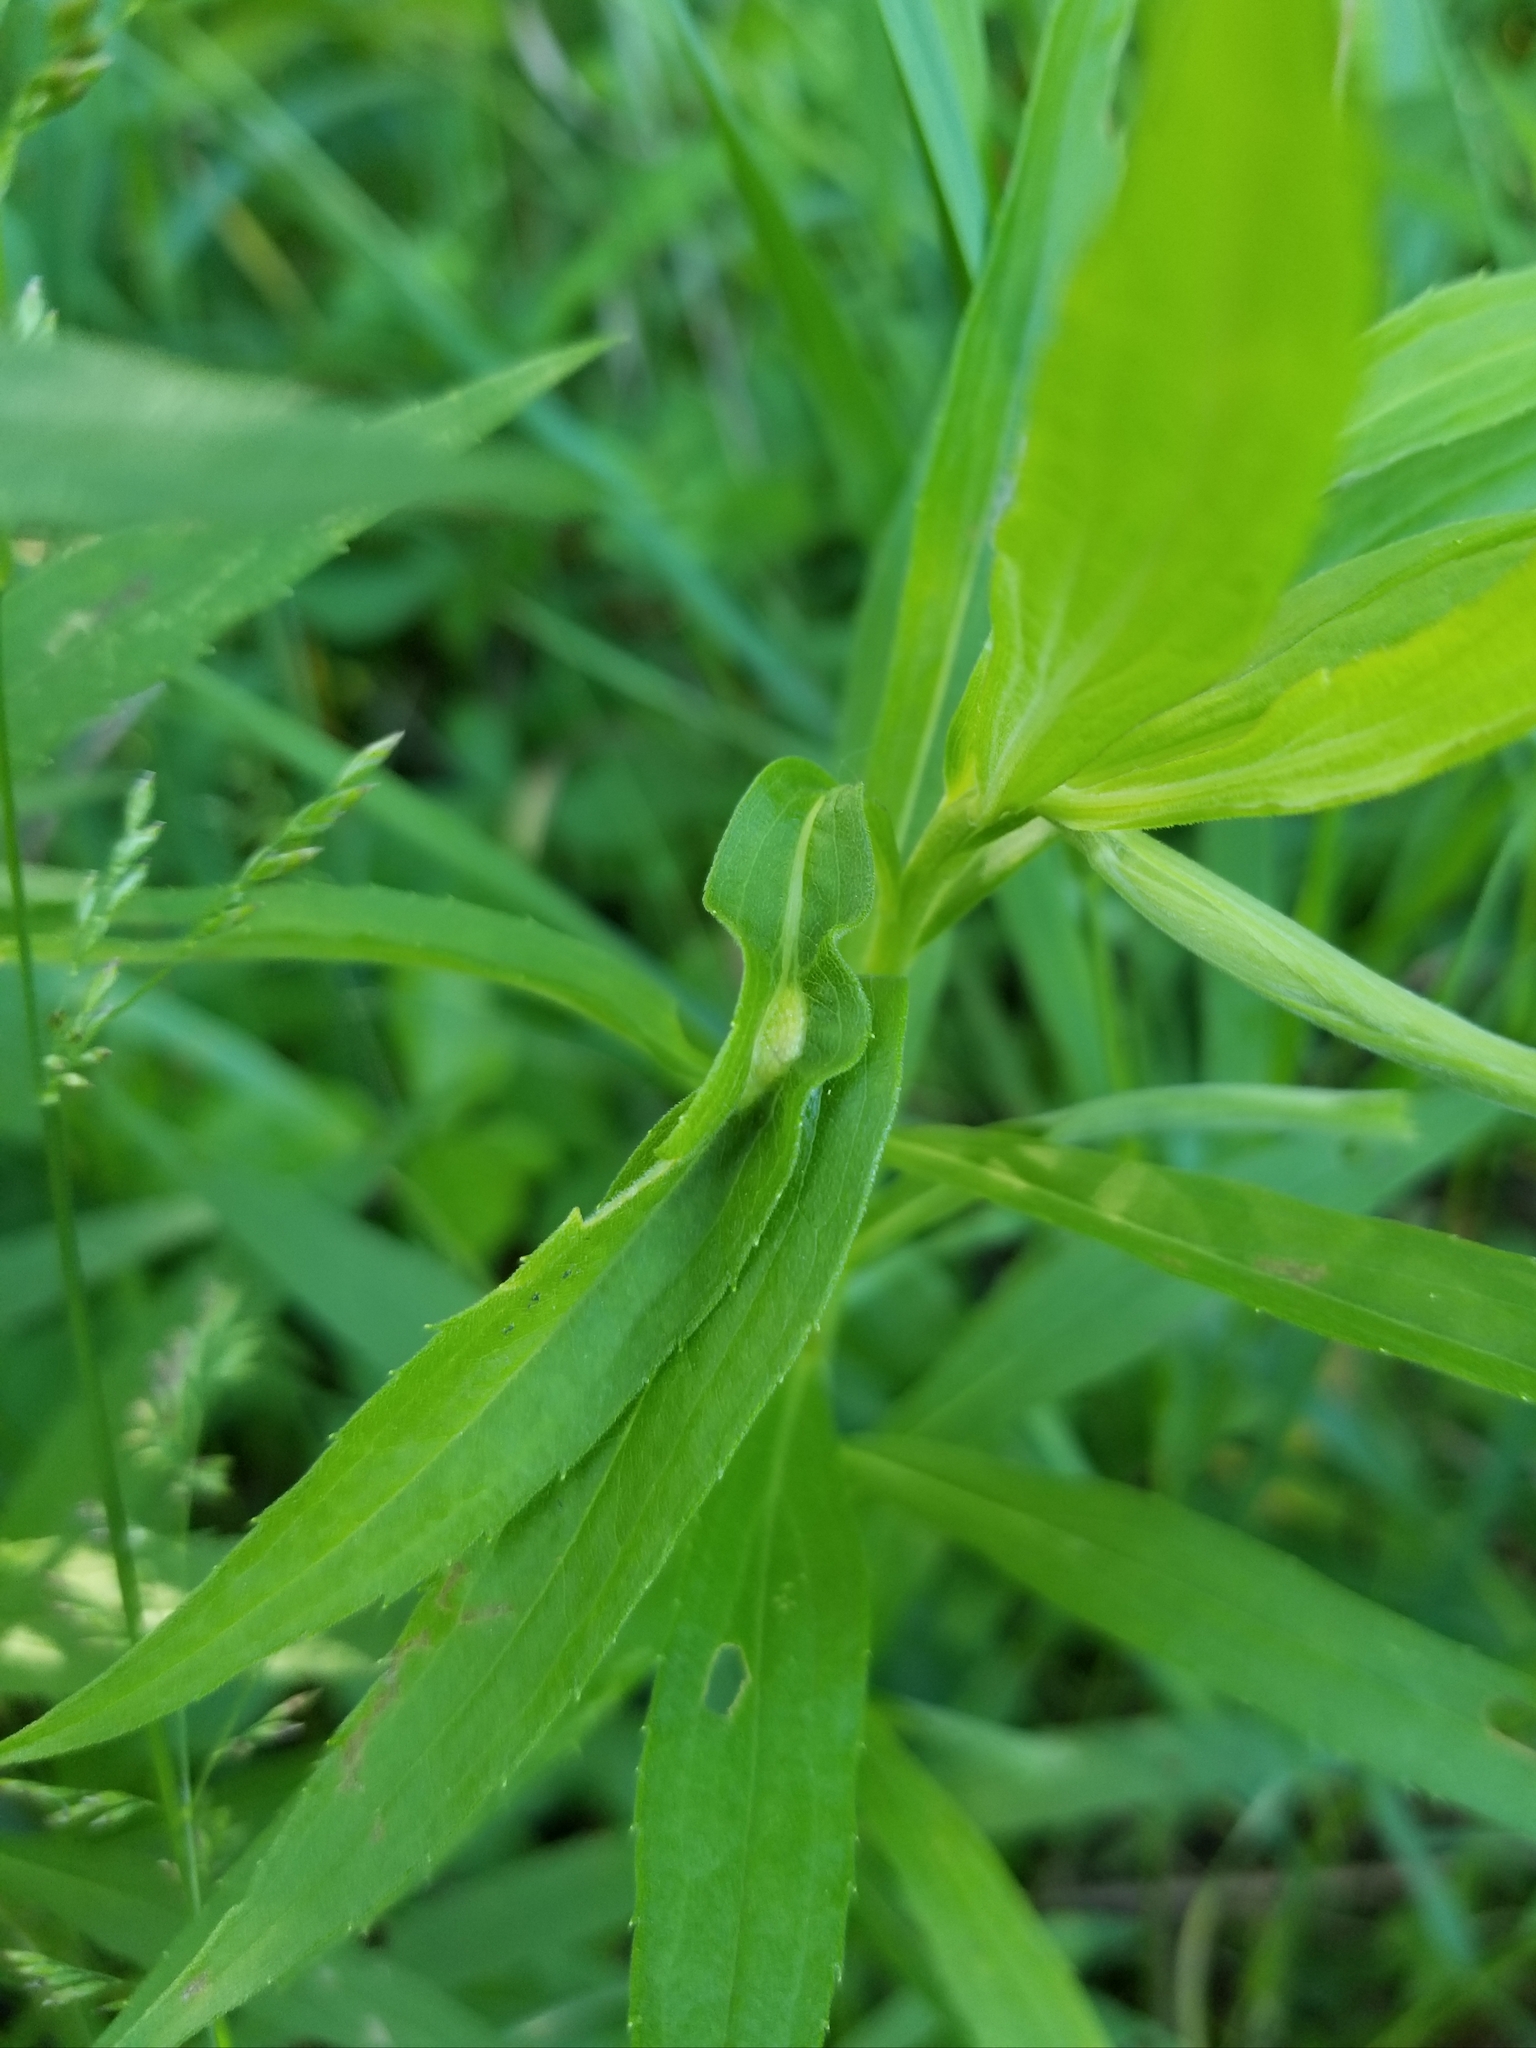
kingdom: Animalia
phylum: Arthropoda
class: Insecta
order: Diptera
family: Cecidomyiidae
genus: Asphondylia
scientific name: Asphondylia solidaginis
